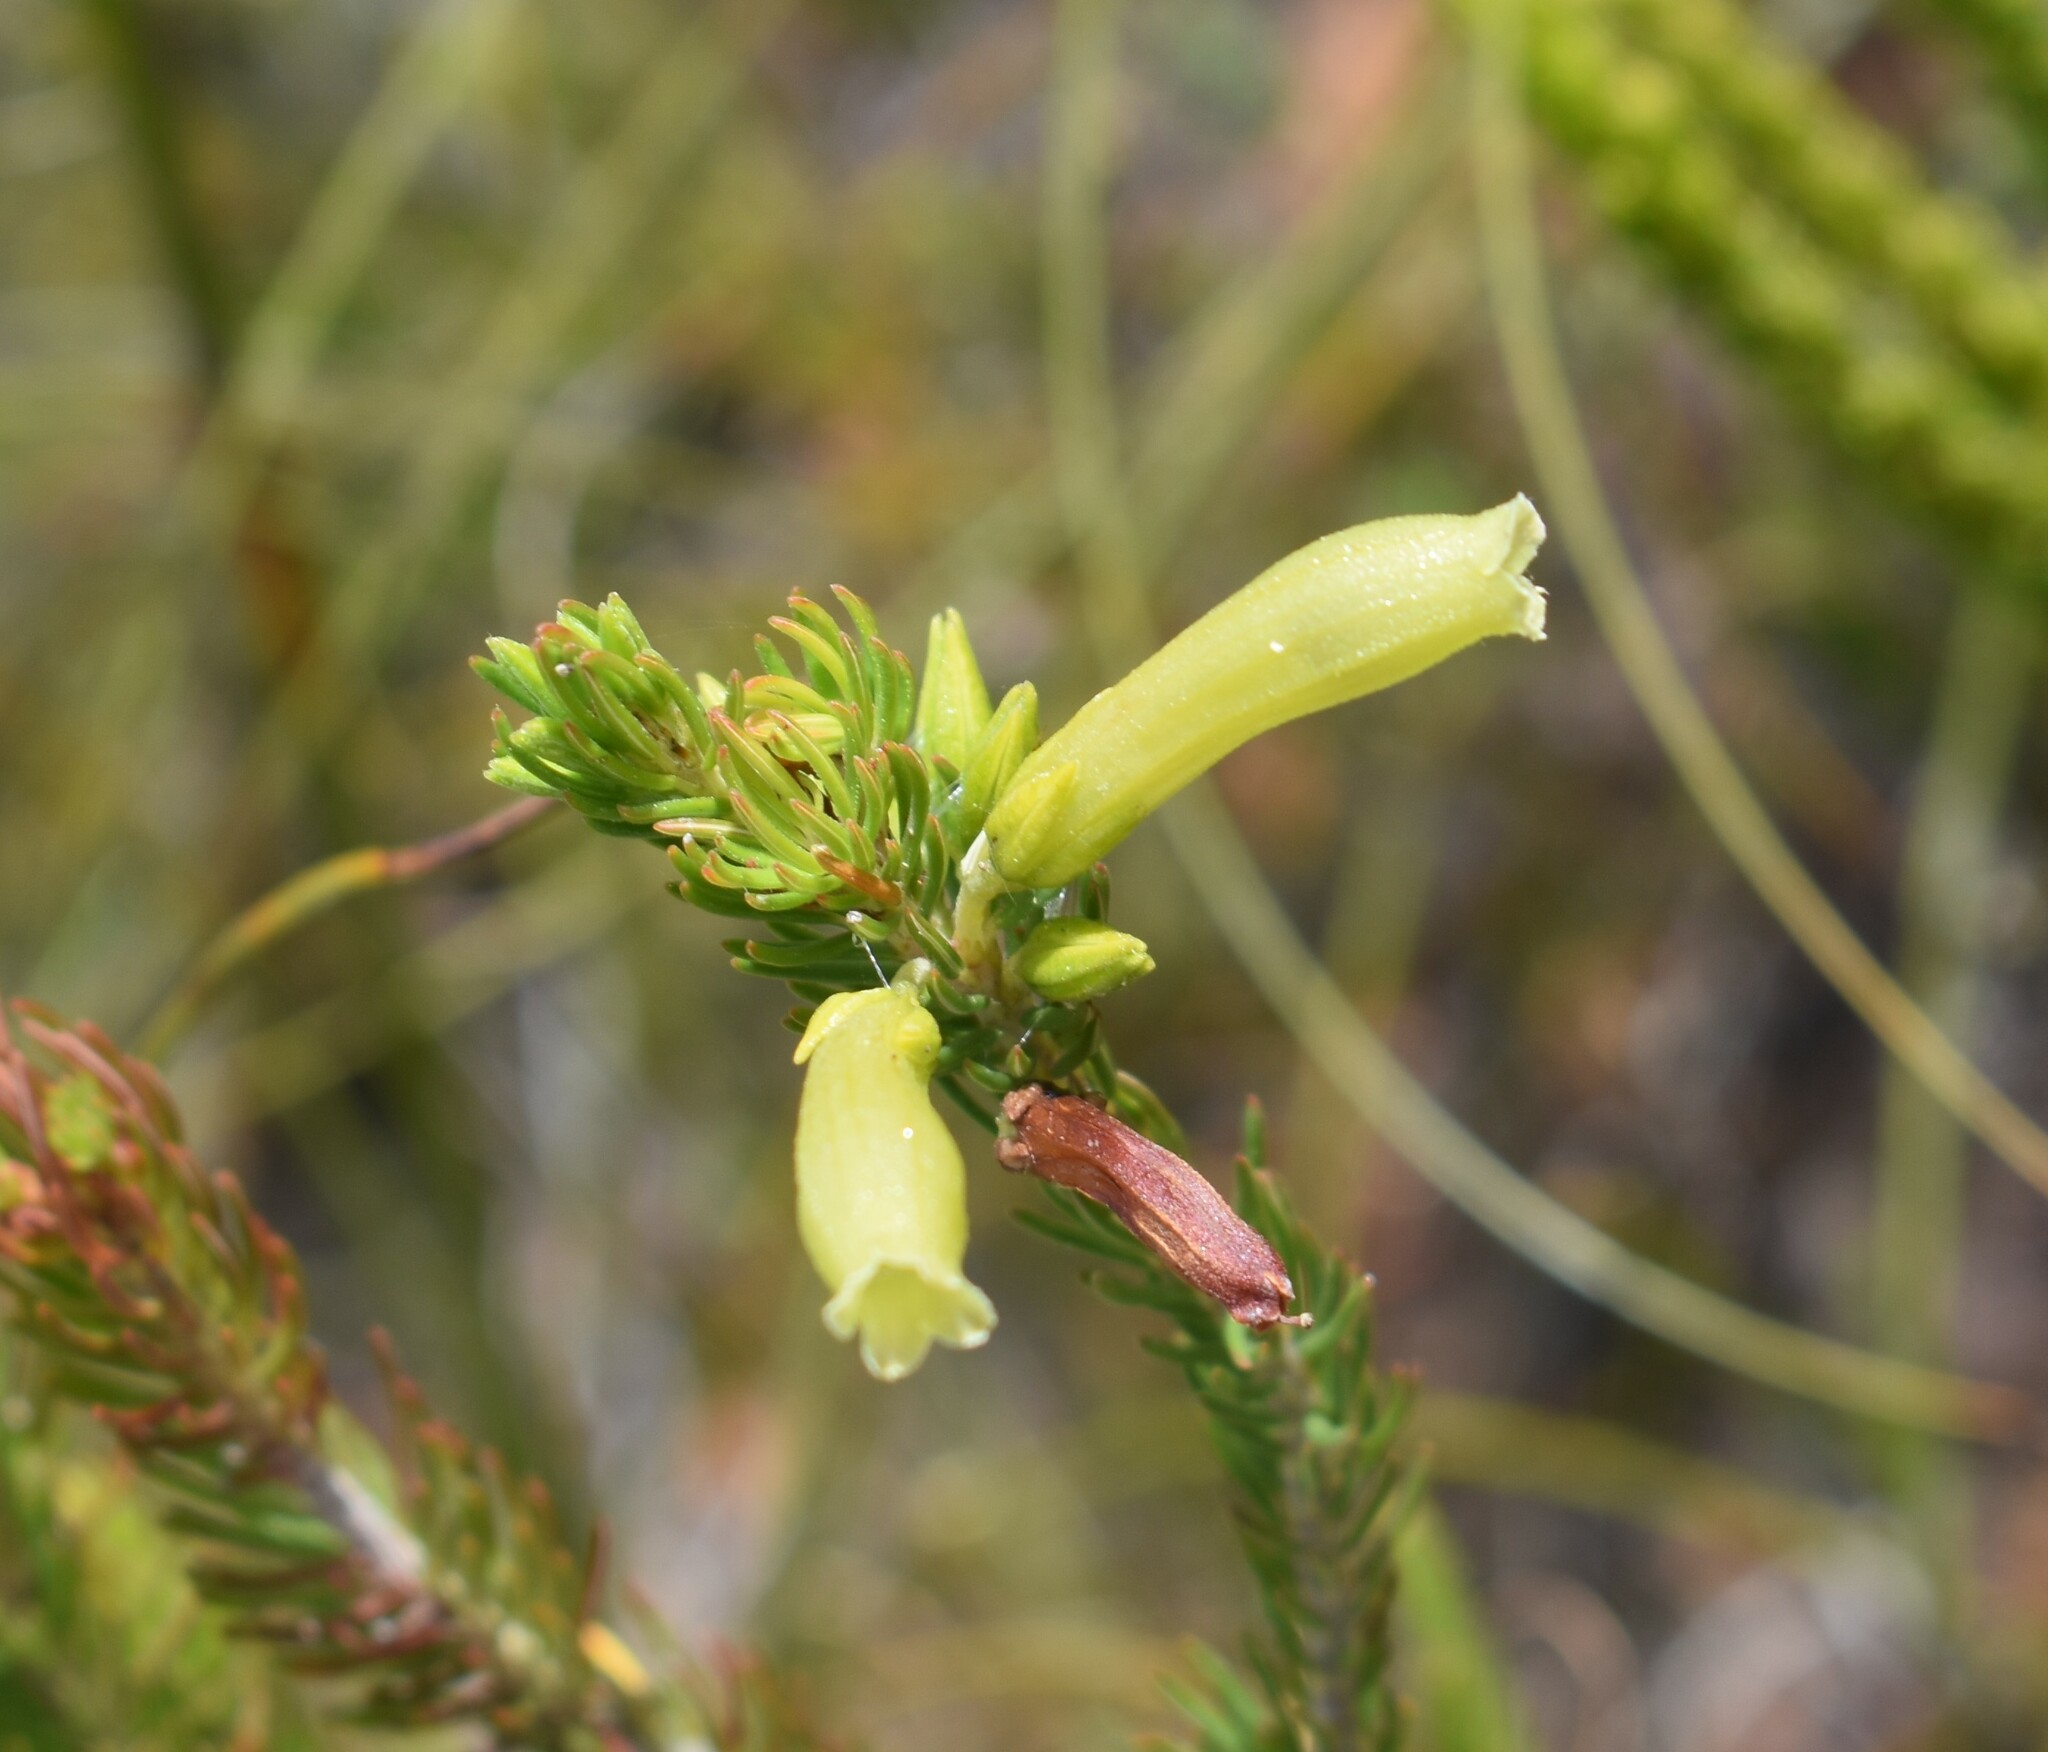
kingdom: Plantae
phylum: Tracheophyta
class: Magnoliopsida
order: Ericales
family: Ericaceae
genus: Erica
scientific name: Erica viscaria
